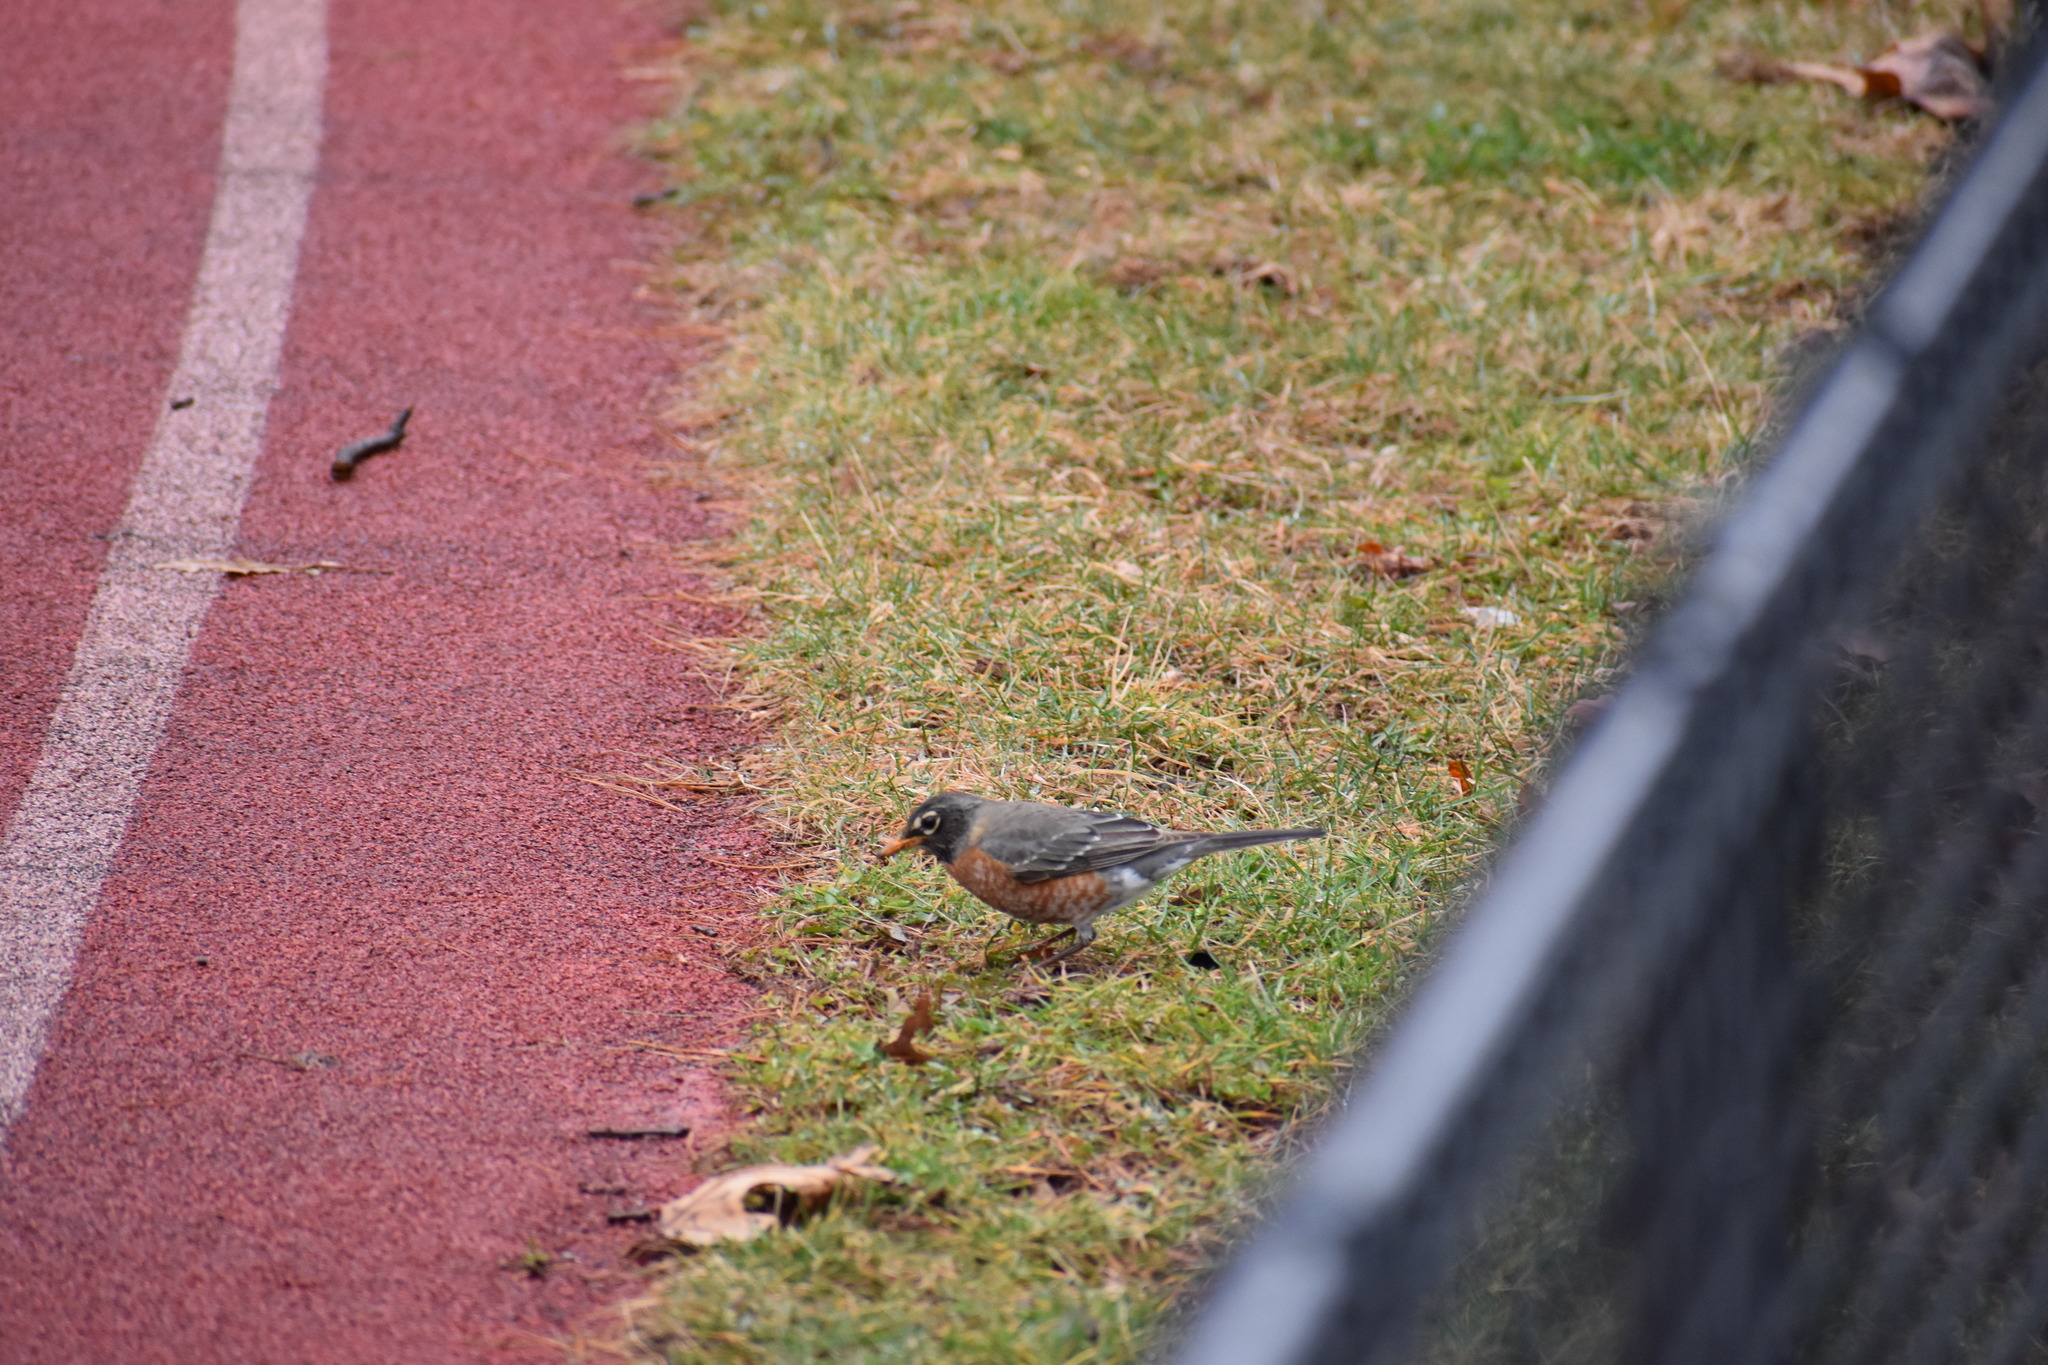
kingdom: Animalia
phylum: Chordata
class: Aves
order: Passeriformes
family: Turdidae
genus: Turdus
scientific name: Turdus migratorius
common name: American robin
